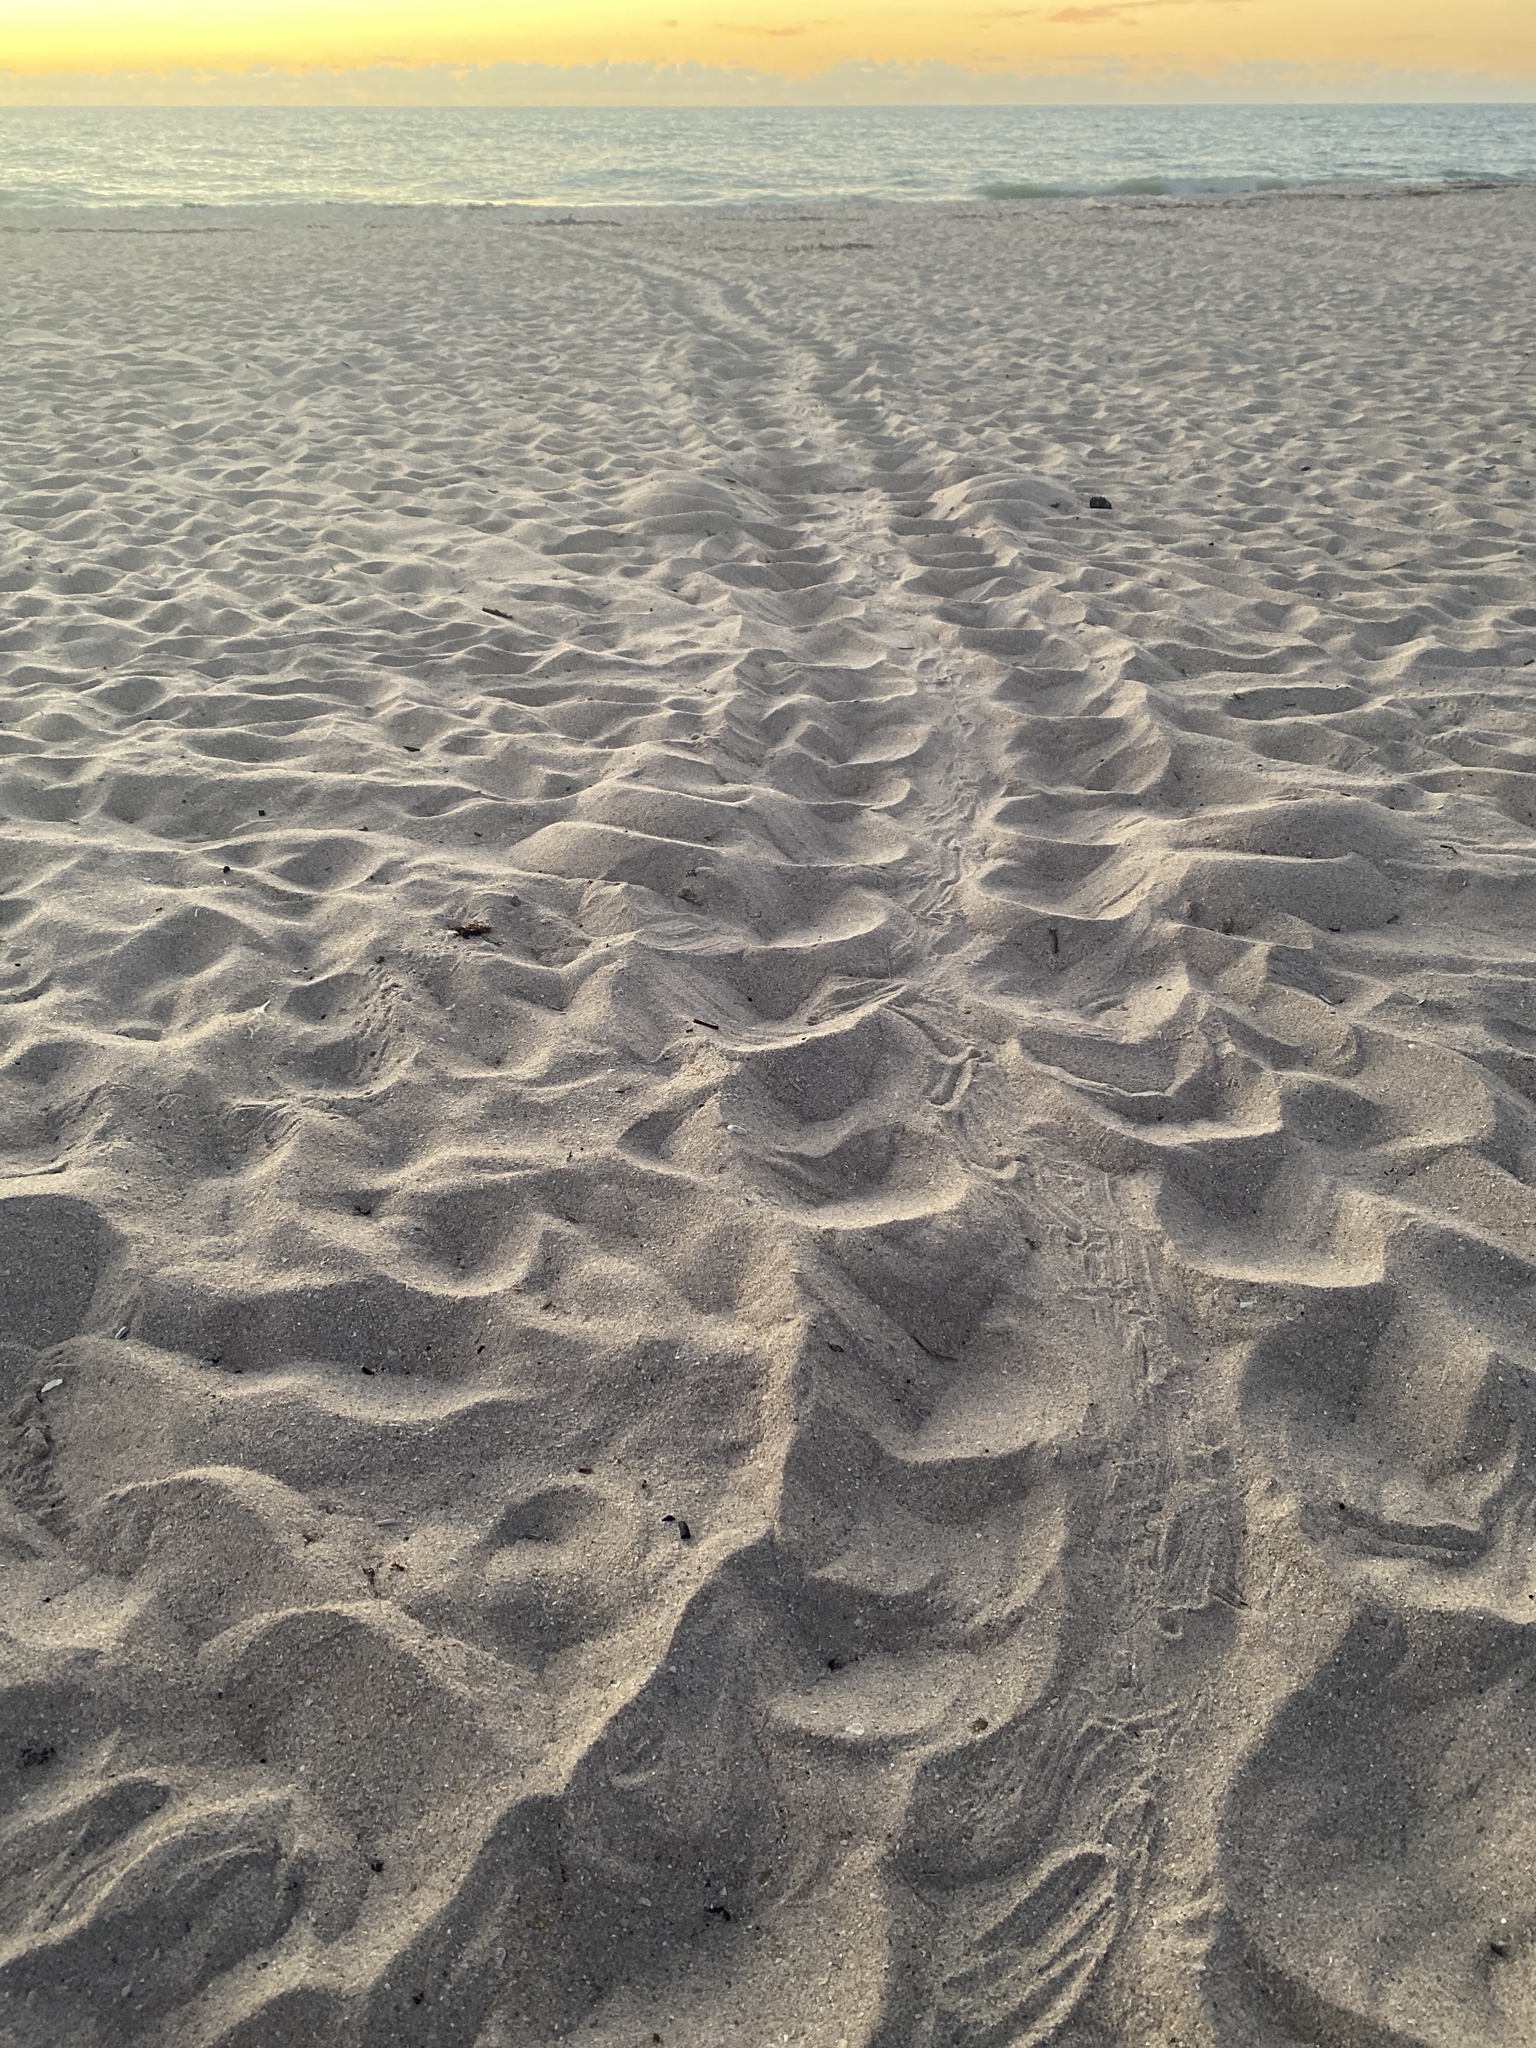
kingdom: Animalia
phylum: Chordata
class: Testudines
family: Cheloniidae
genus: Caretta
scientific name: Caretta caretta
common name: Loggerhead sea turtle
